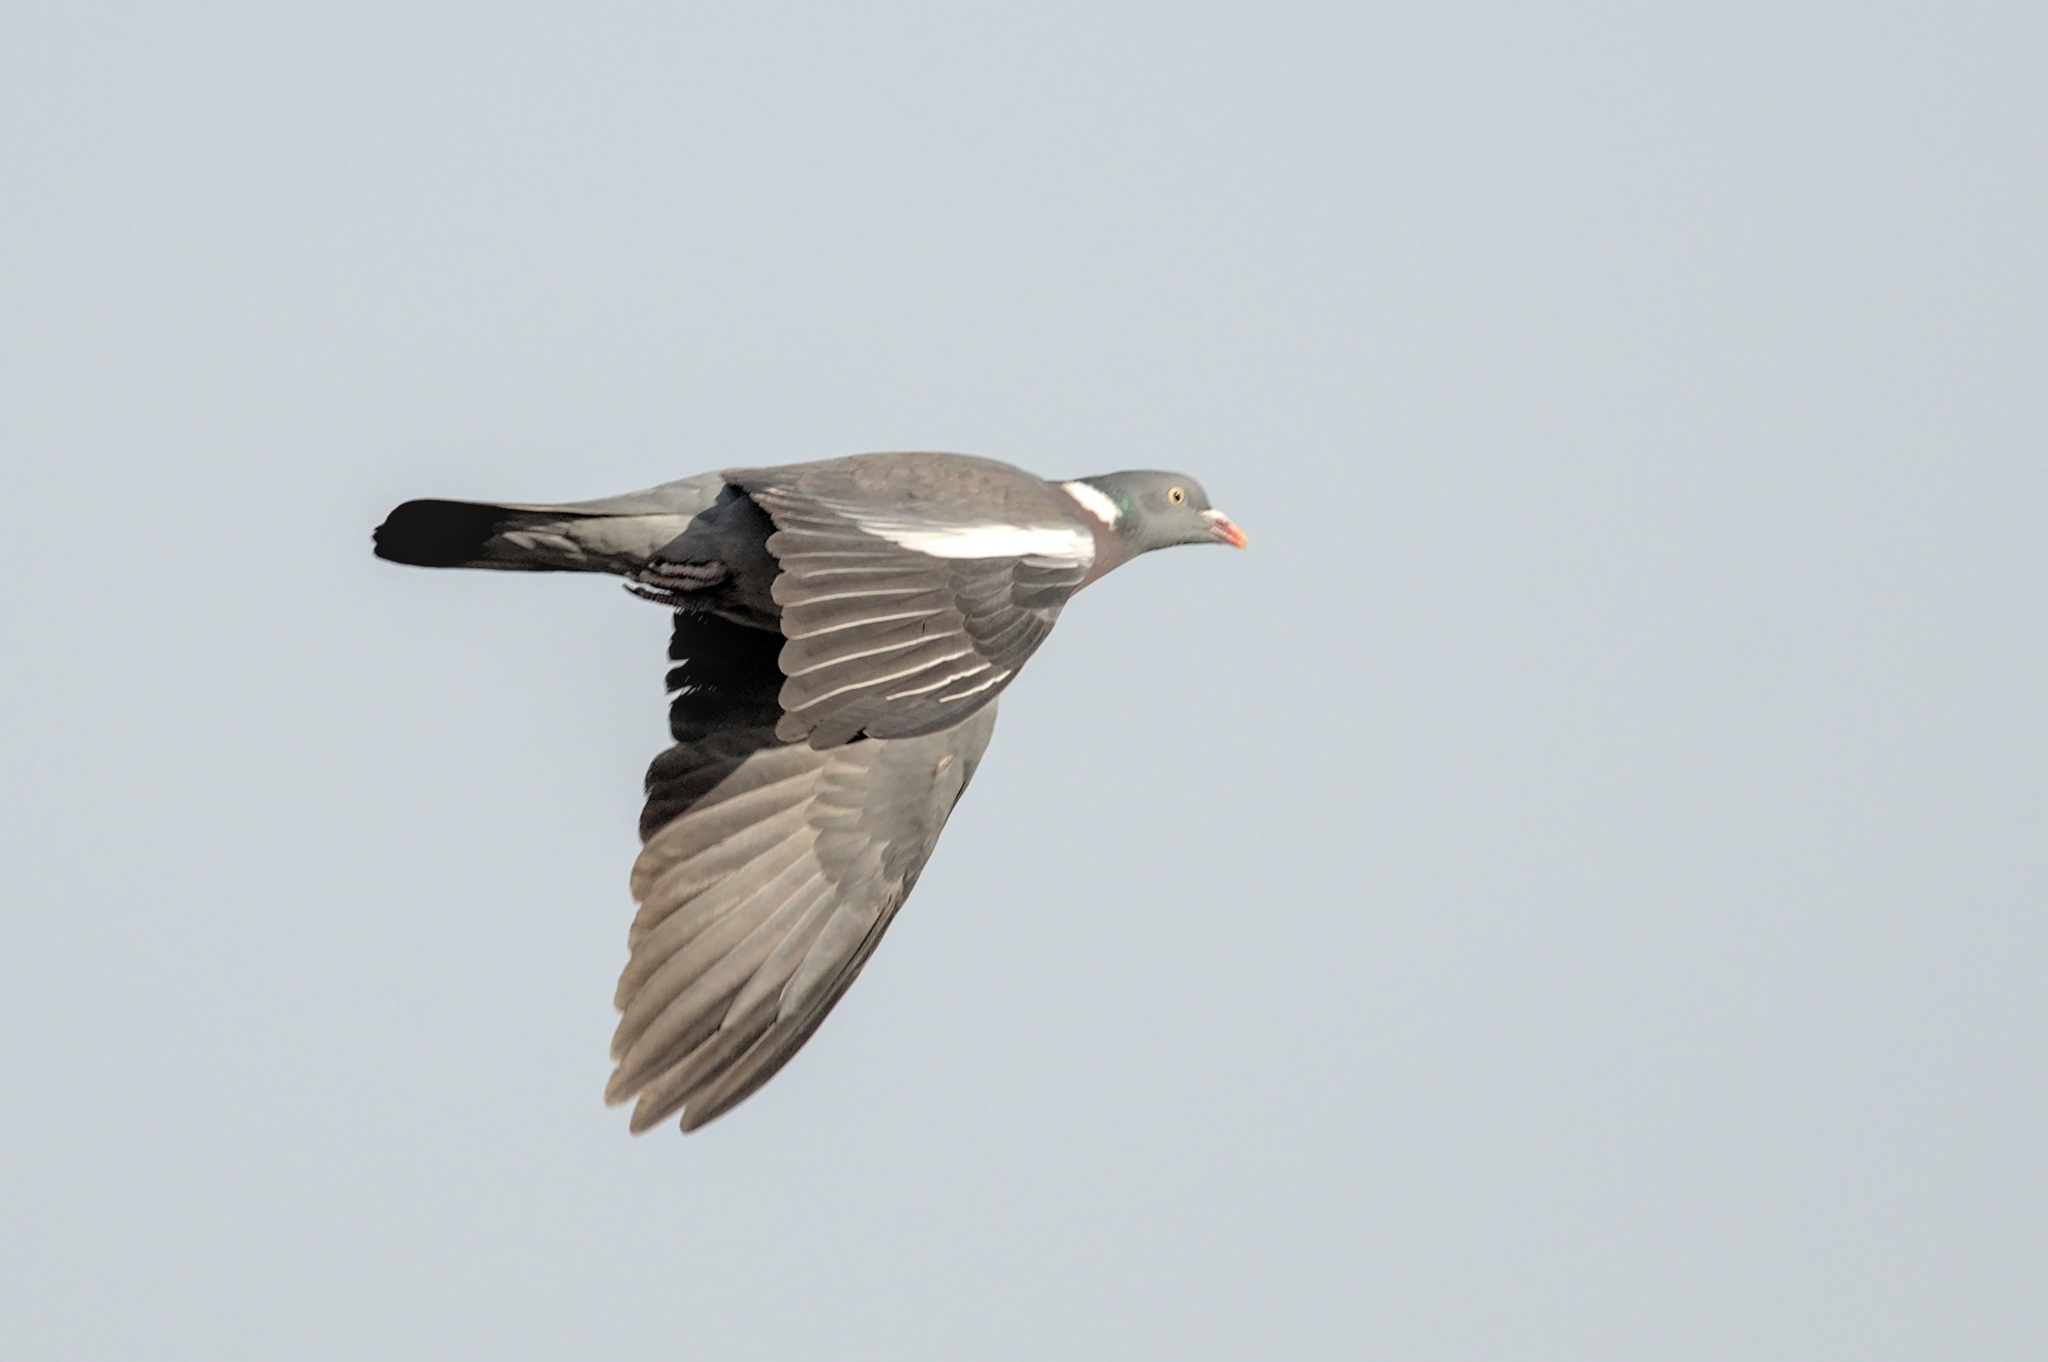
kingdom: Animalia
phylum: Chordata
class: Aves
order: Columbiformes
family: Columbidae
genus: Columba
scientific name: Columba palumbus
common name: Common wood pigeon
